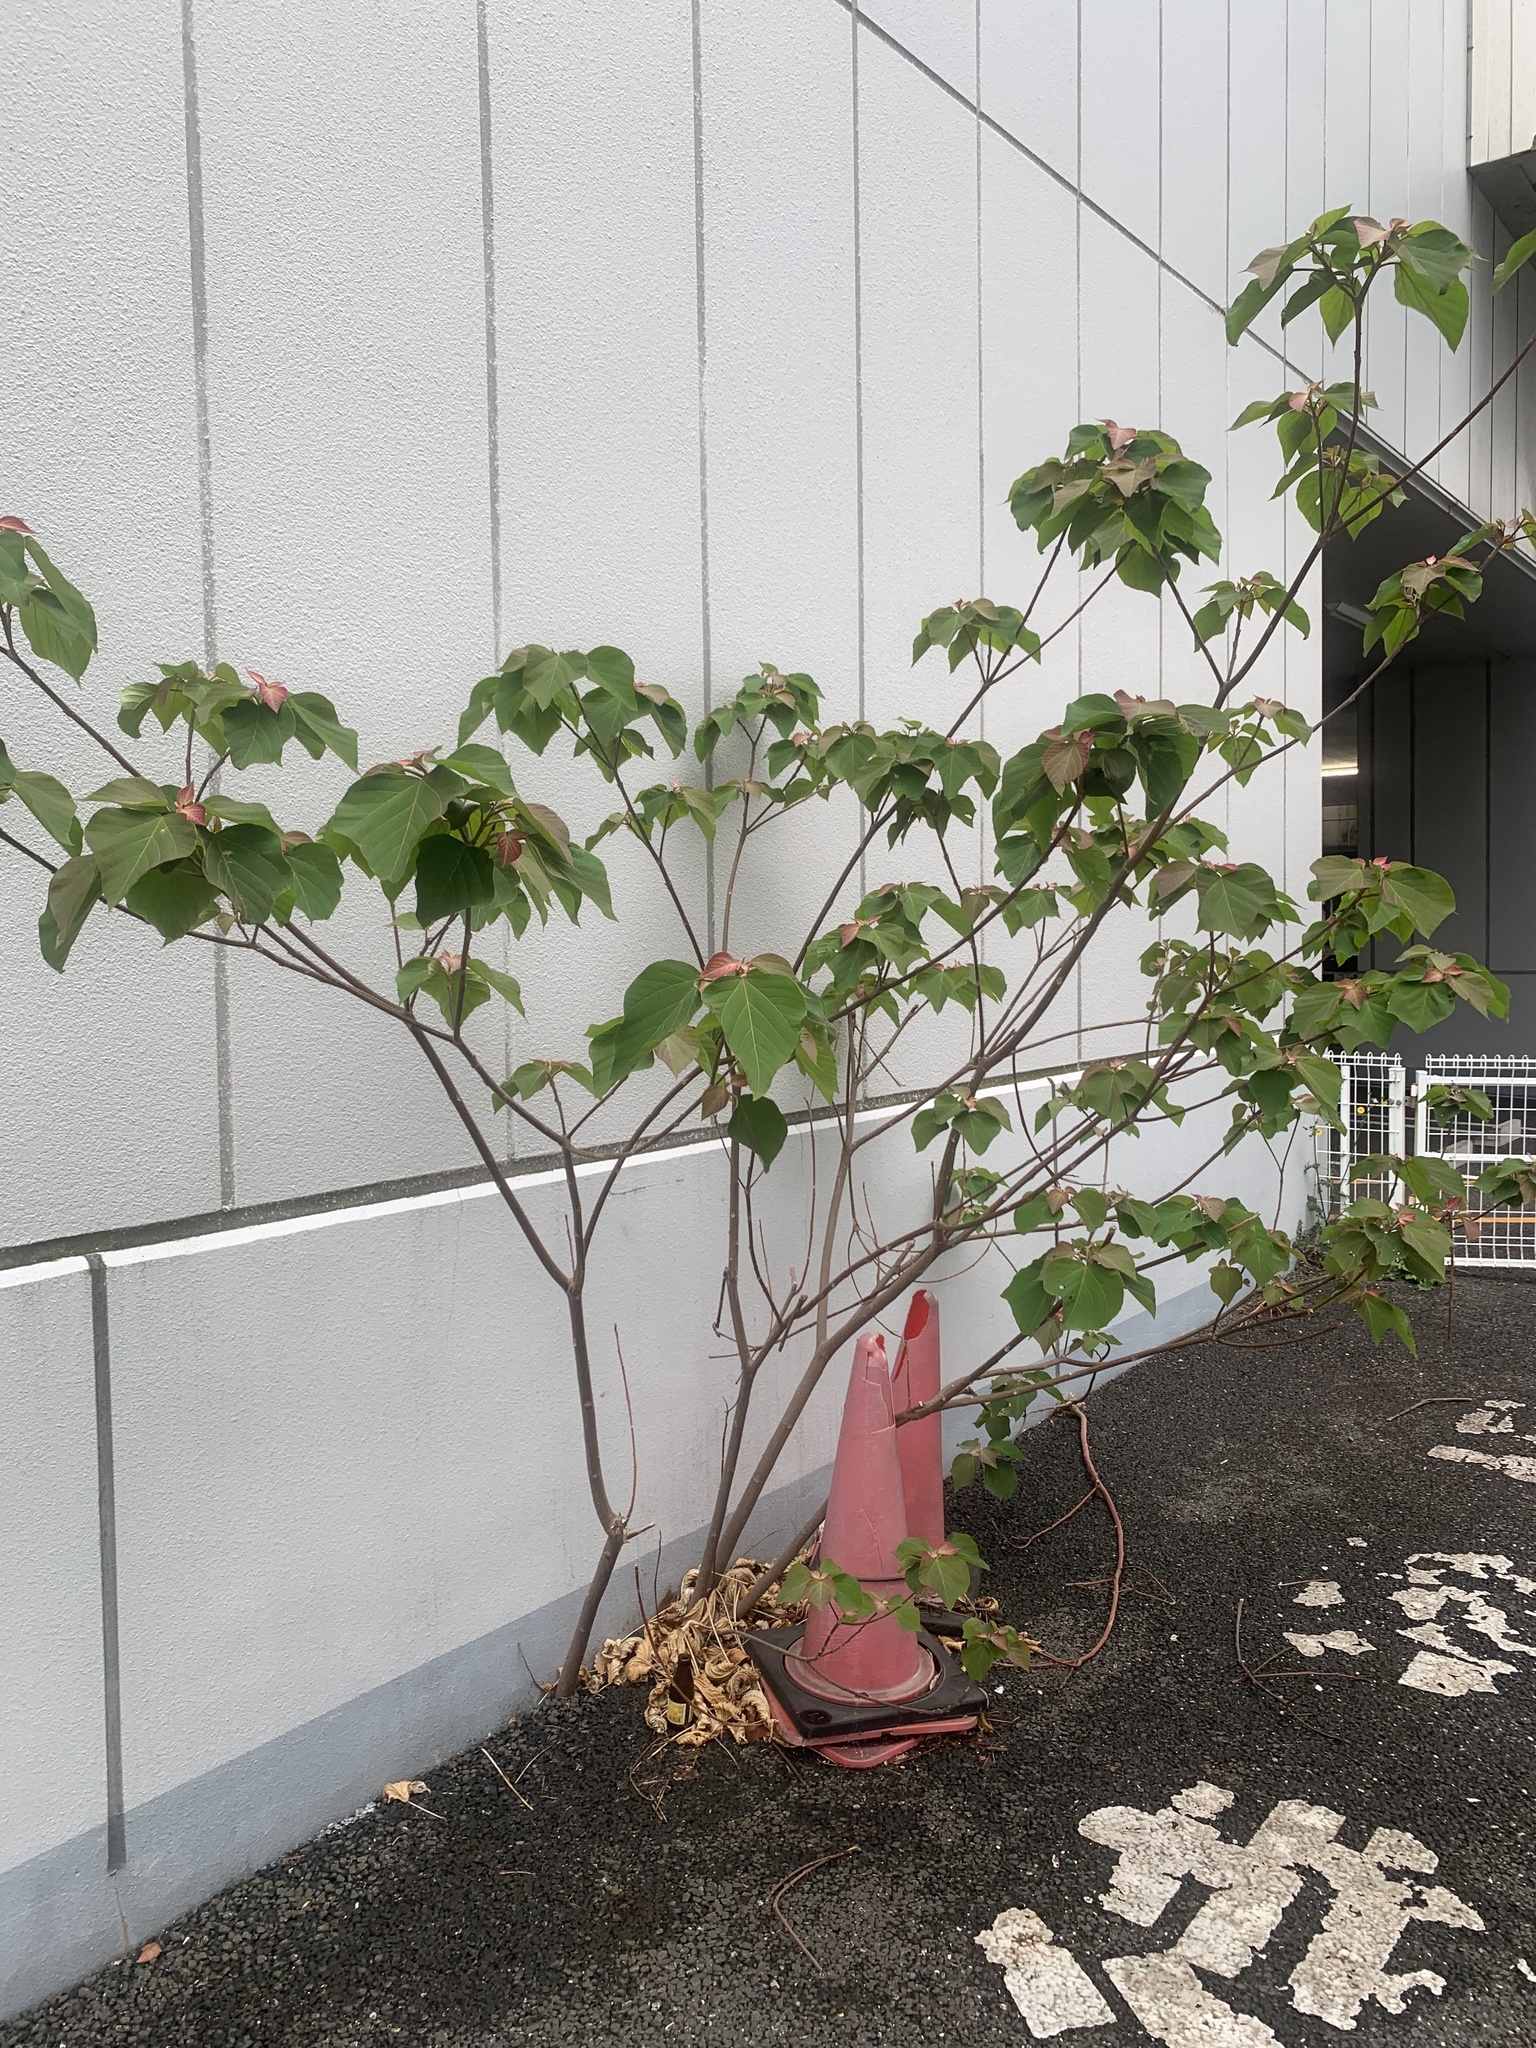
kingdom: Plantae
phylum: Tracheophyta
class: Magnoliopsida
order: Malpighiales
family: Euphorbiaceae
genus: Mallotus
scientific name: Mallotus japonicus
